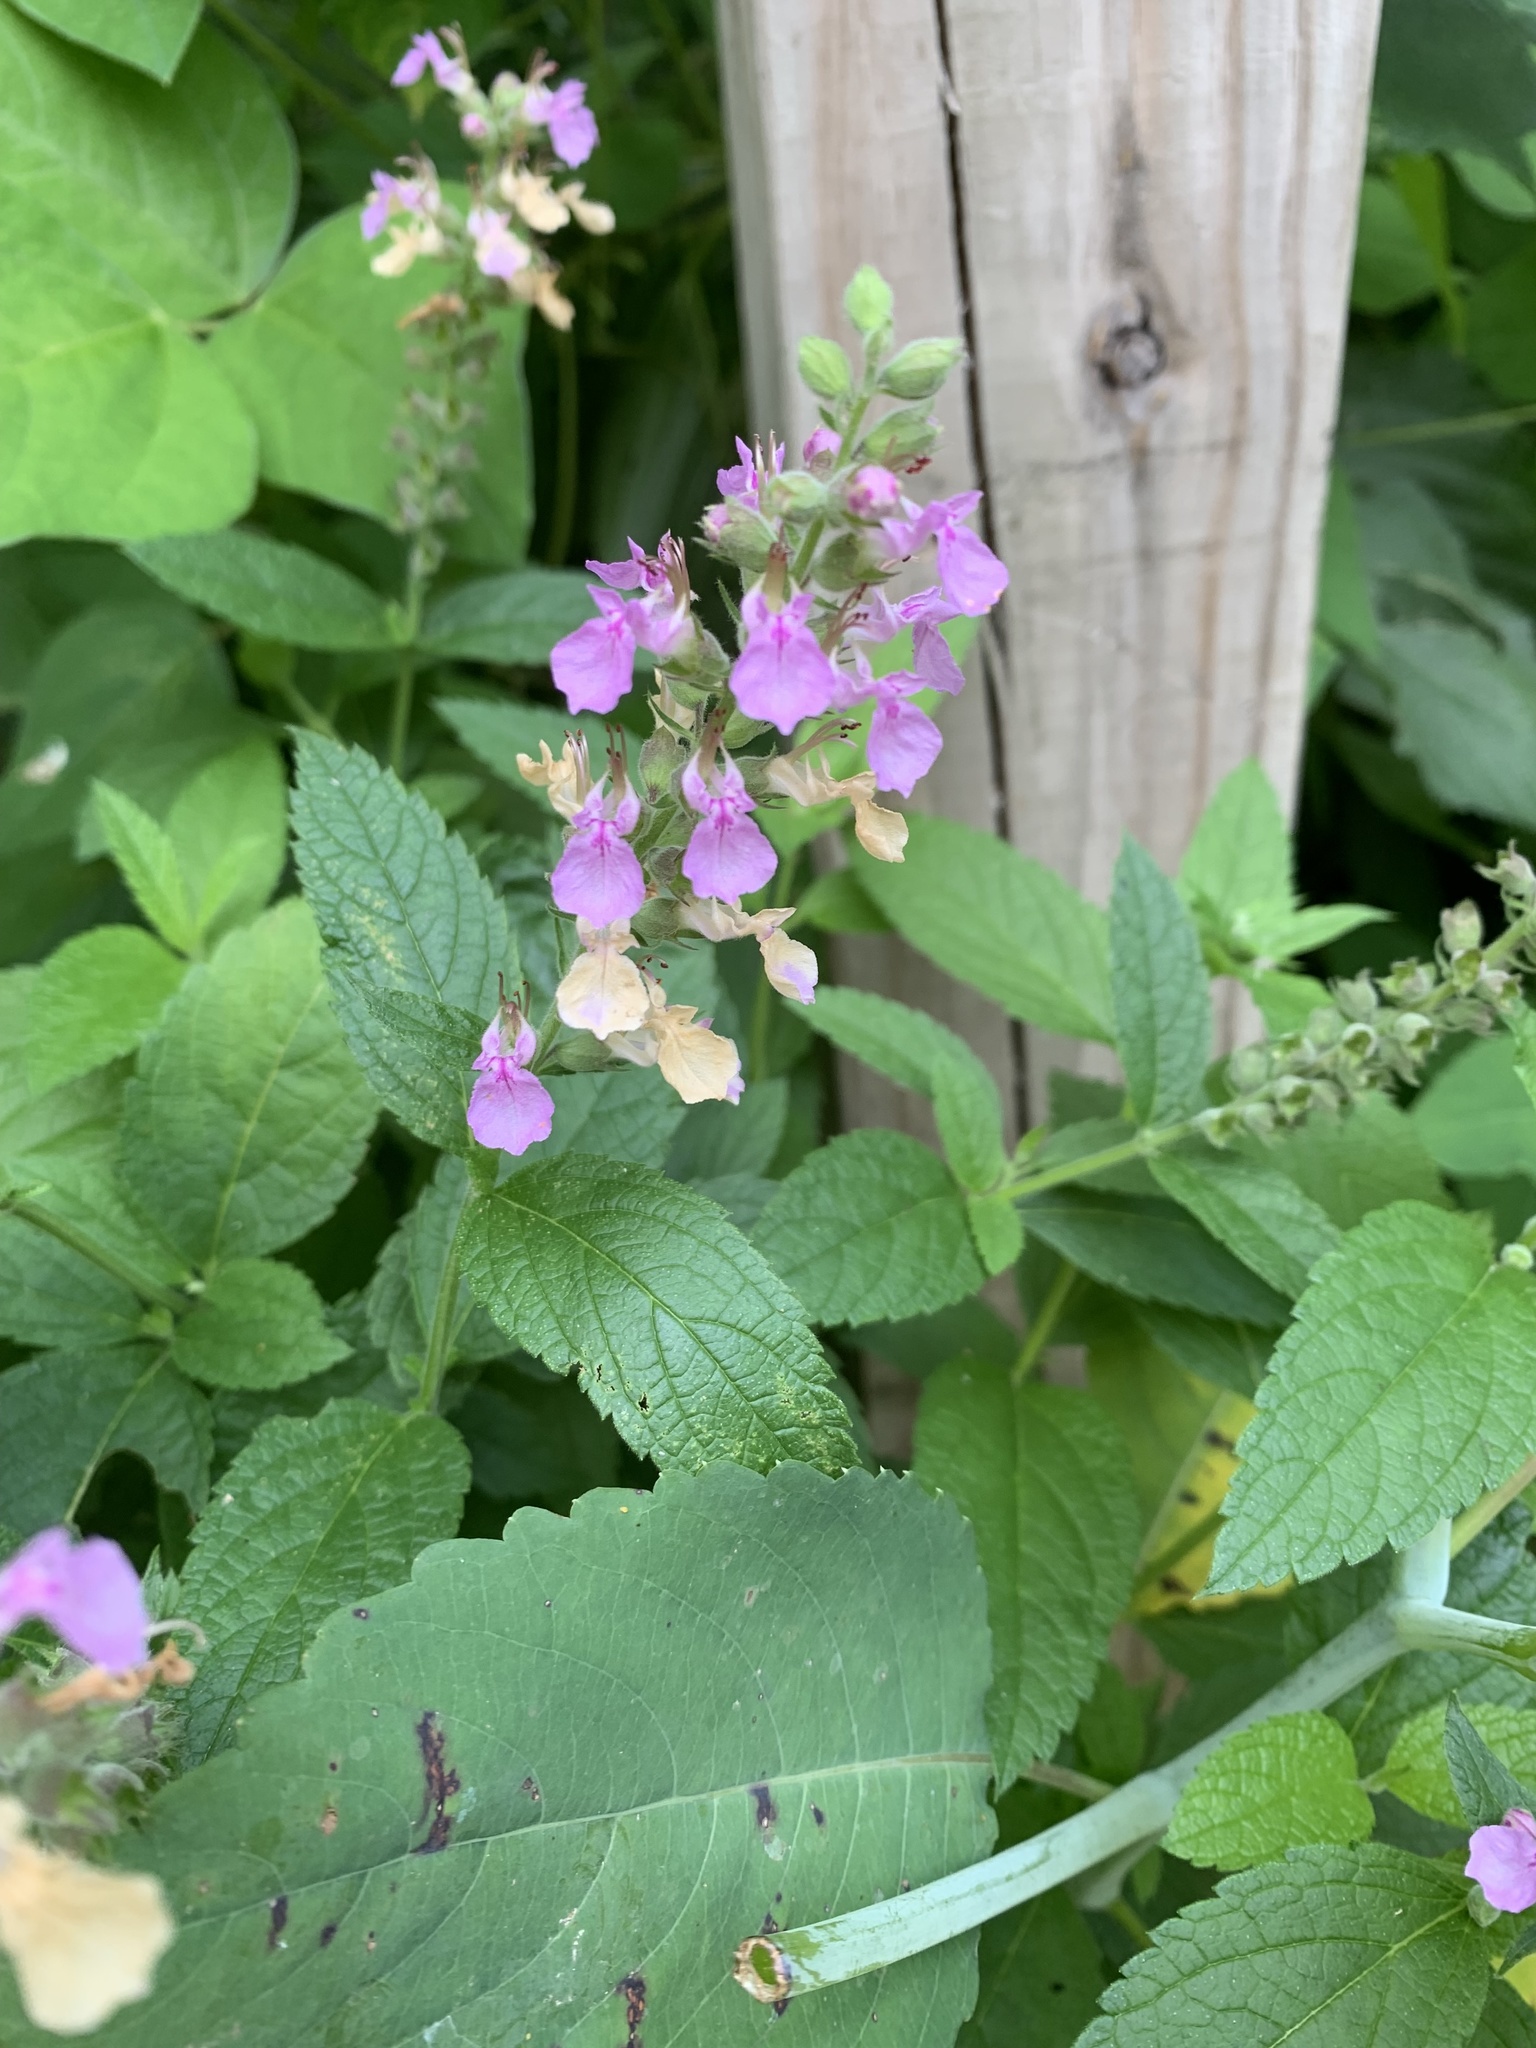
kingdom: Plantae
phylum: Tracheophyta
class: Magnoliopsida
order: Lamiales
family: Lamiaceae
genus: Teucrium
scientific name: Teucrium canadense
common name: American germander
